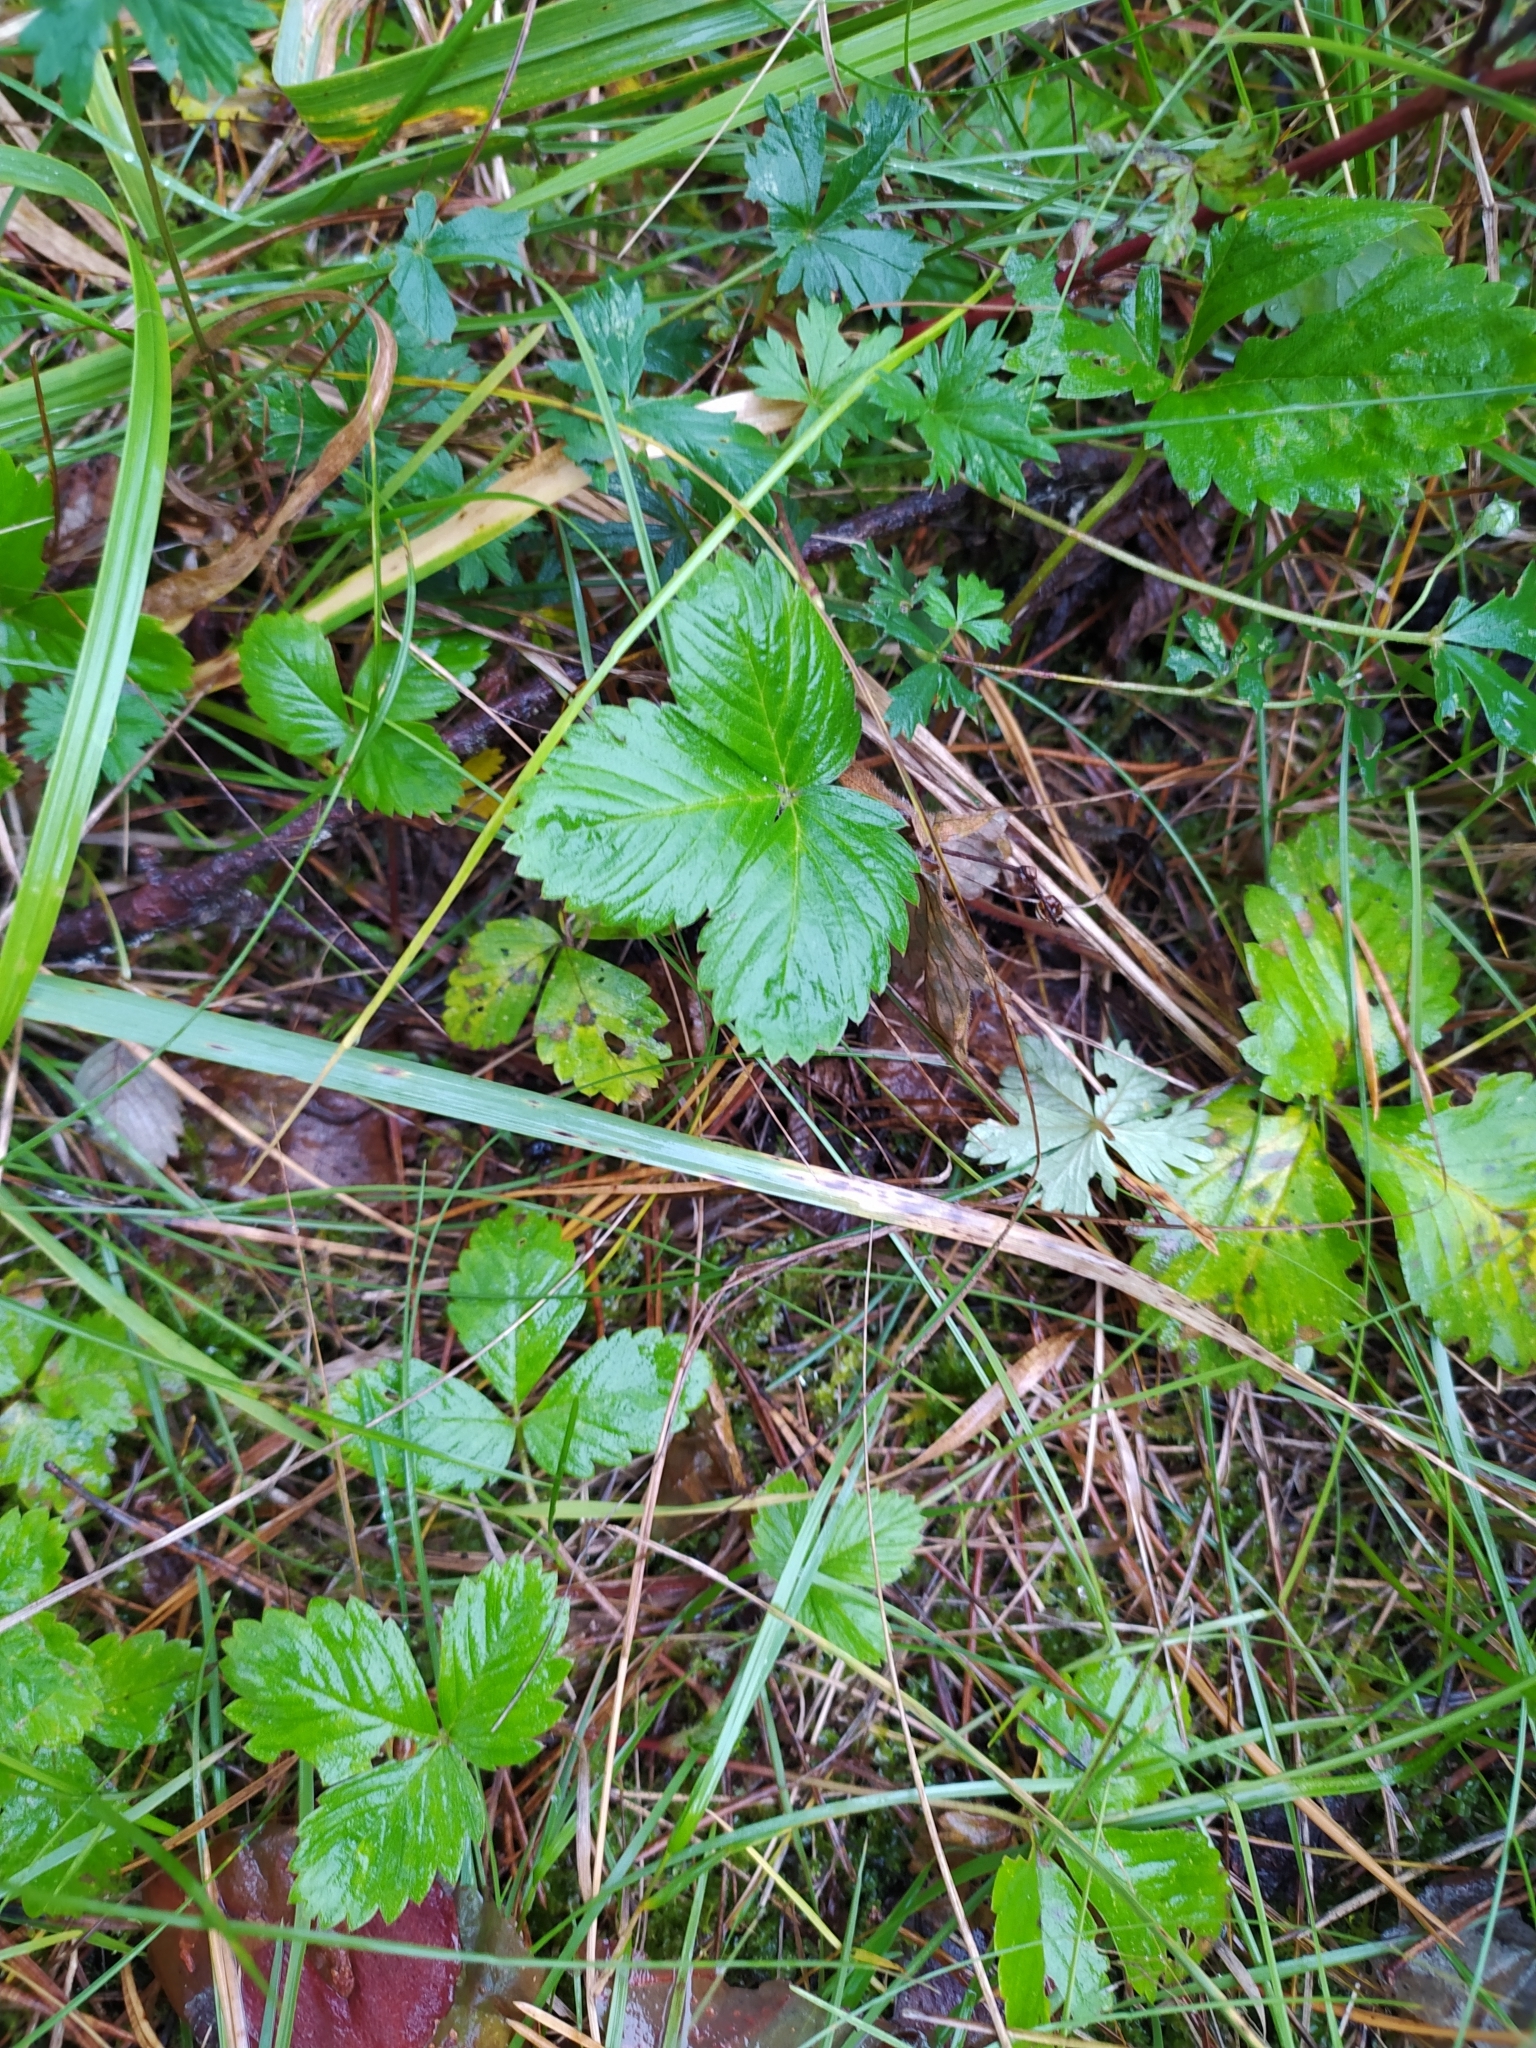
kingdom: Plantae
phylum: Tracheophyta
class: Magnoliopsida
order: Rosales
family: Rosaceae
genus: Fragaria
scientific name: Fragaria vesca
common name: Wild strawberry
